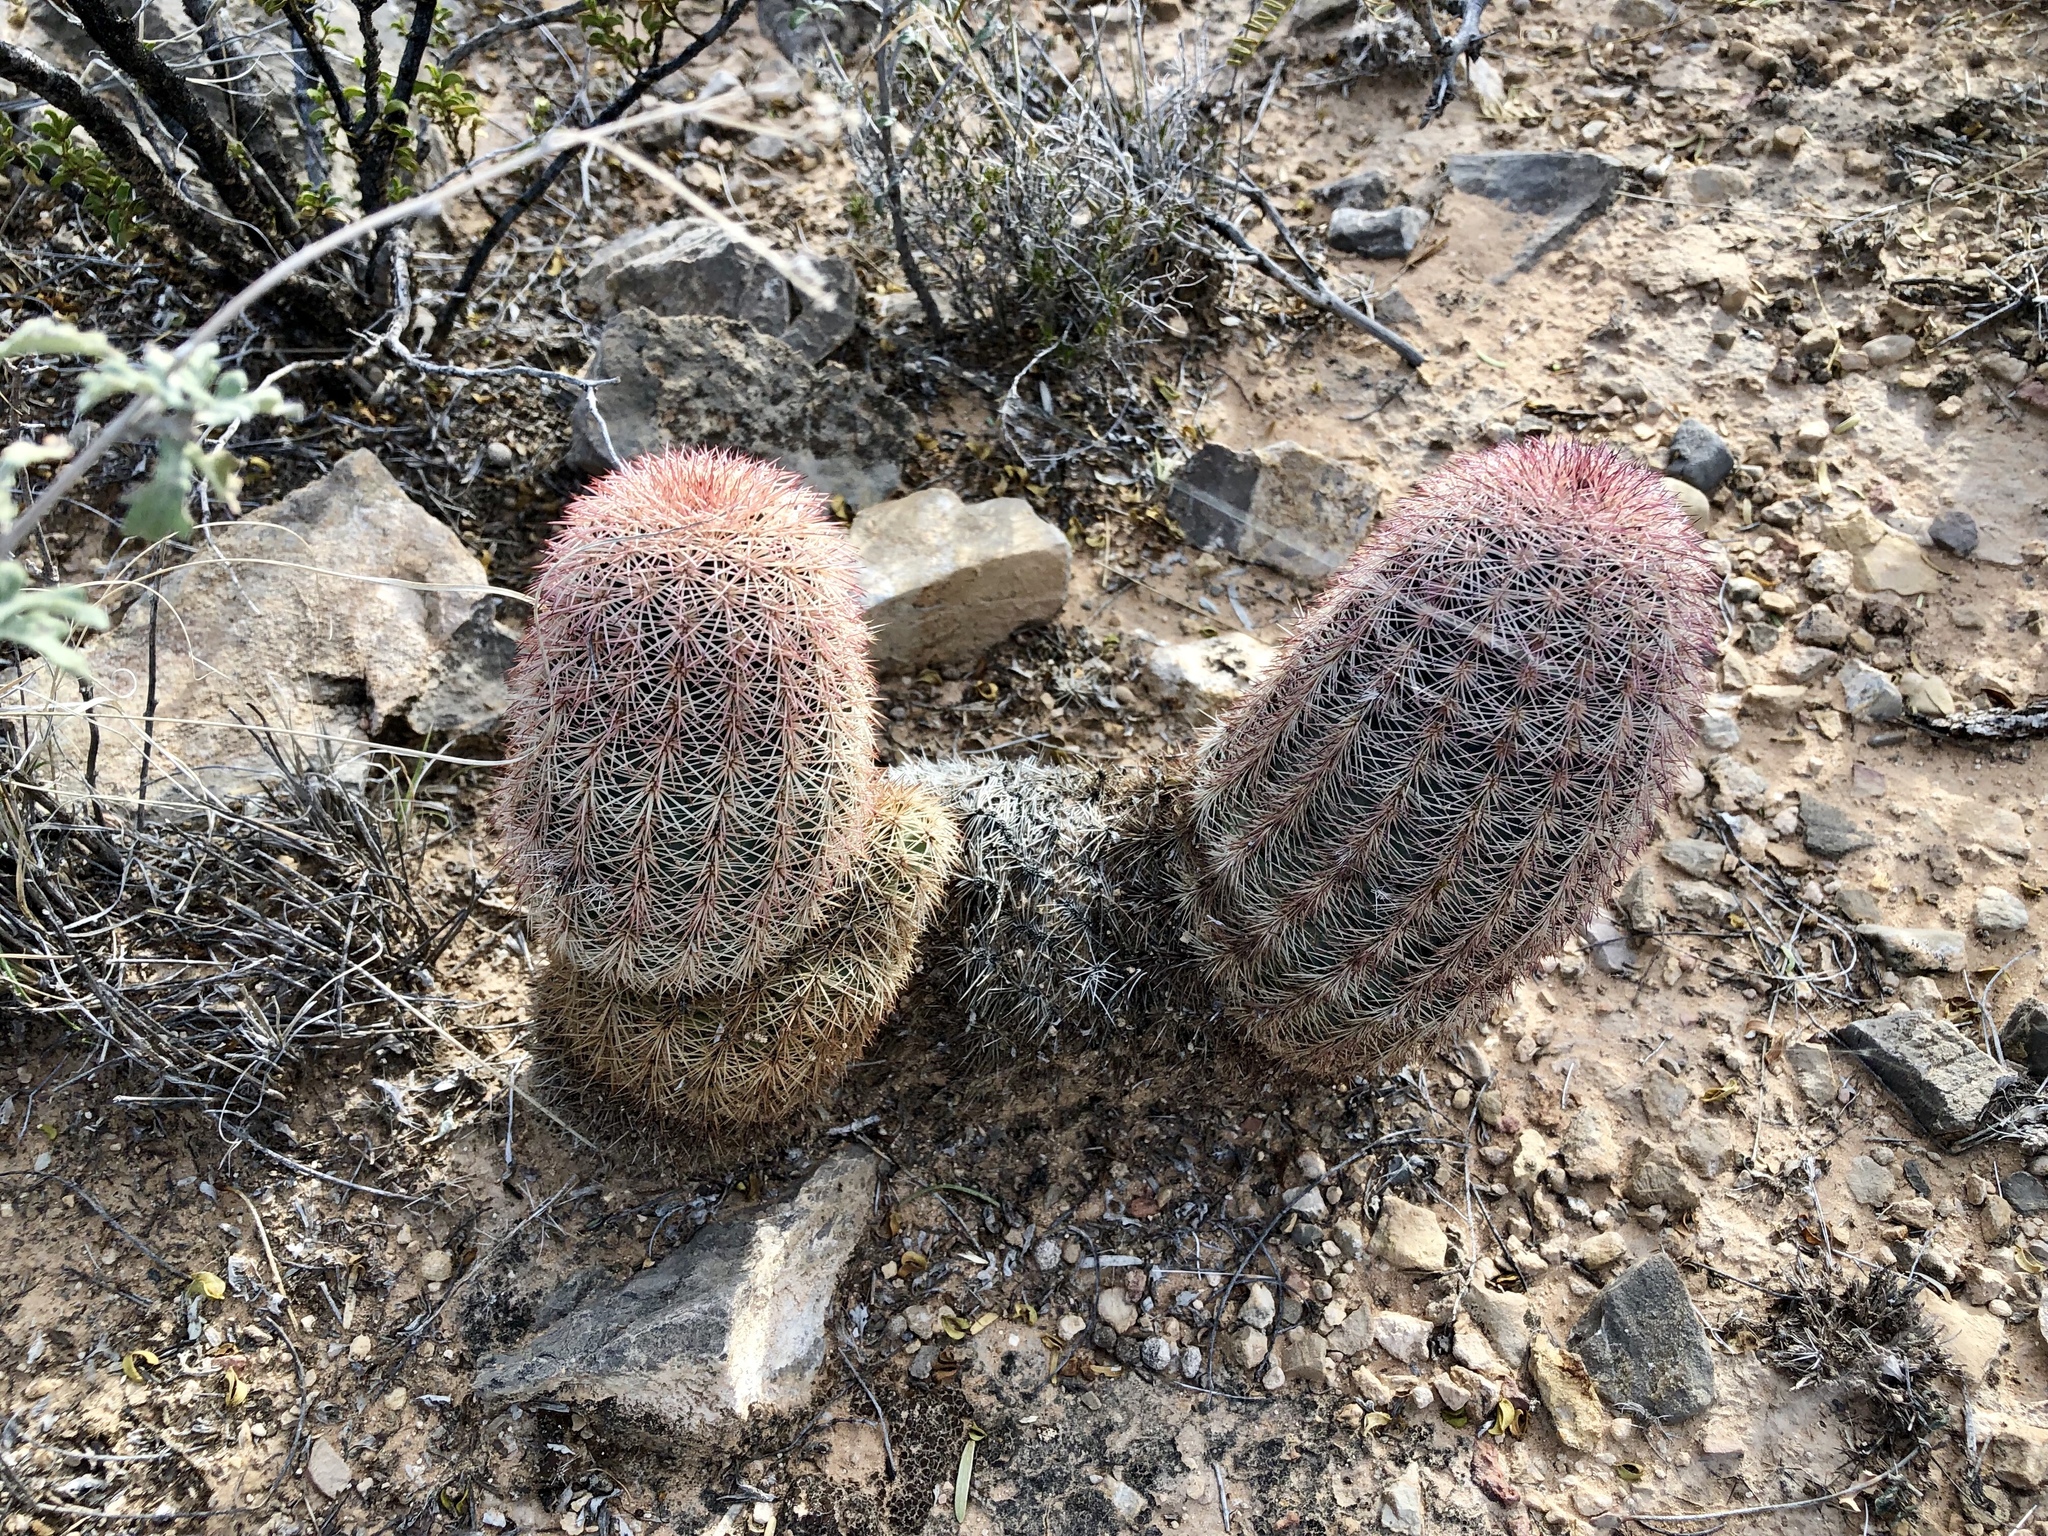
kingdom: Plantae
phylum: Tracheophyta
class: Magnoliopsida
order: Caryophyllales
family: Cactaceae
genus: Echinocereus
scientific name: Echinocereus dasyacanthus
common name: Spiny hedgehog cactus
